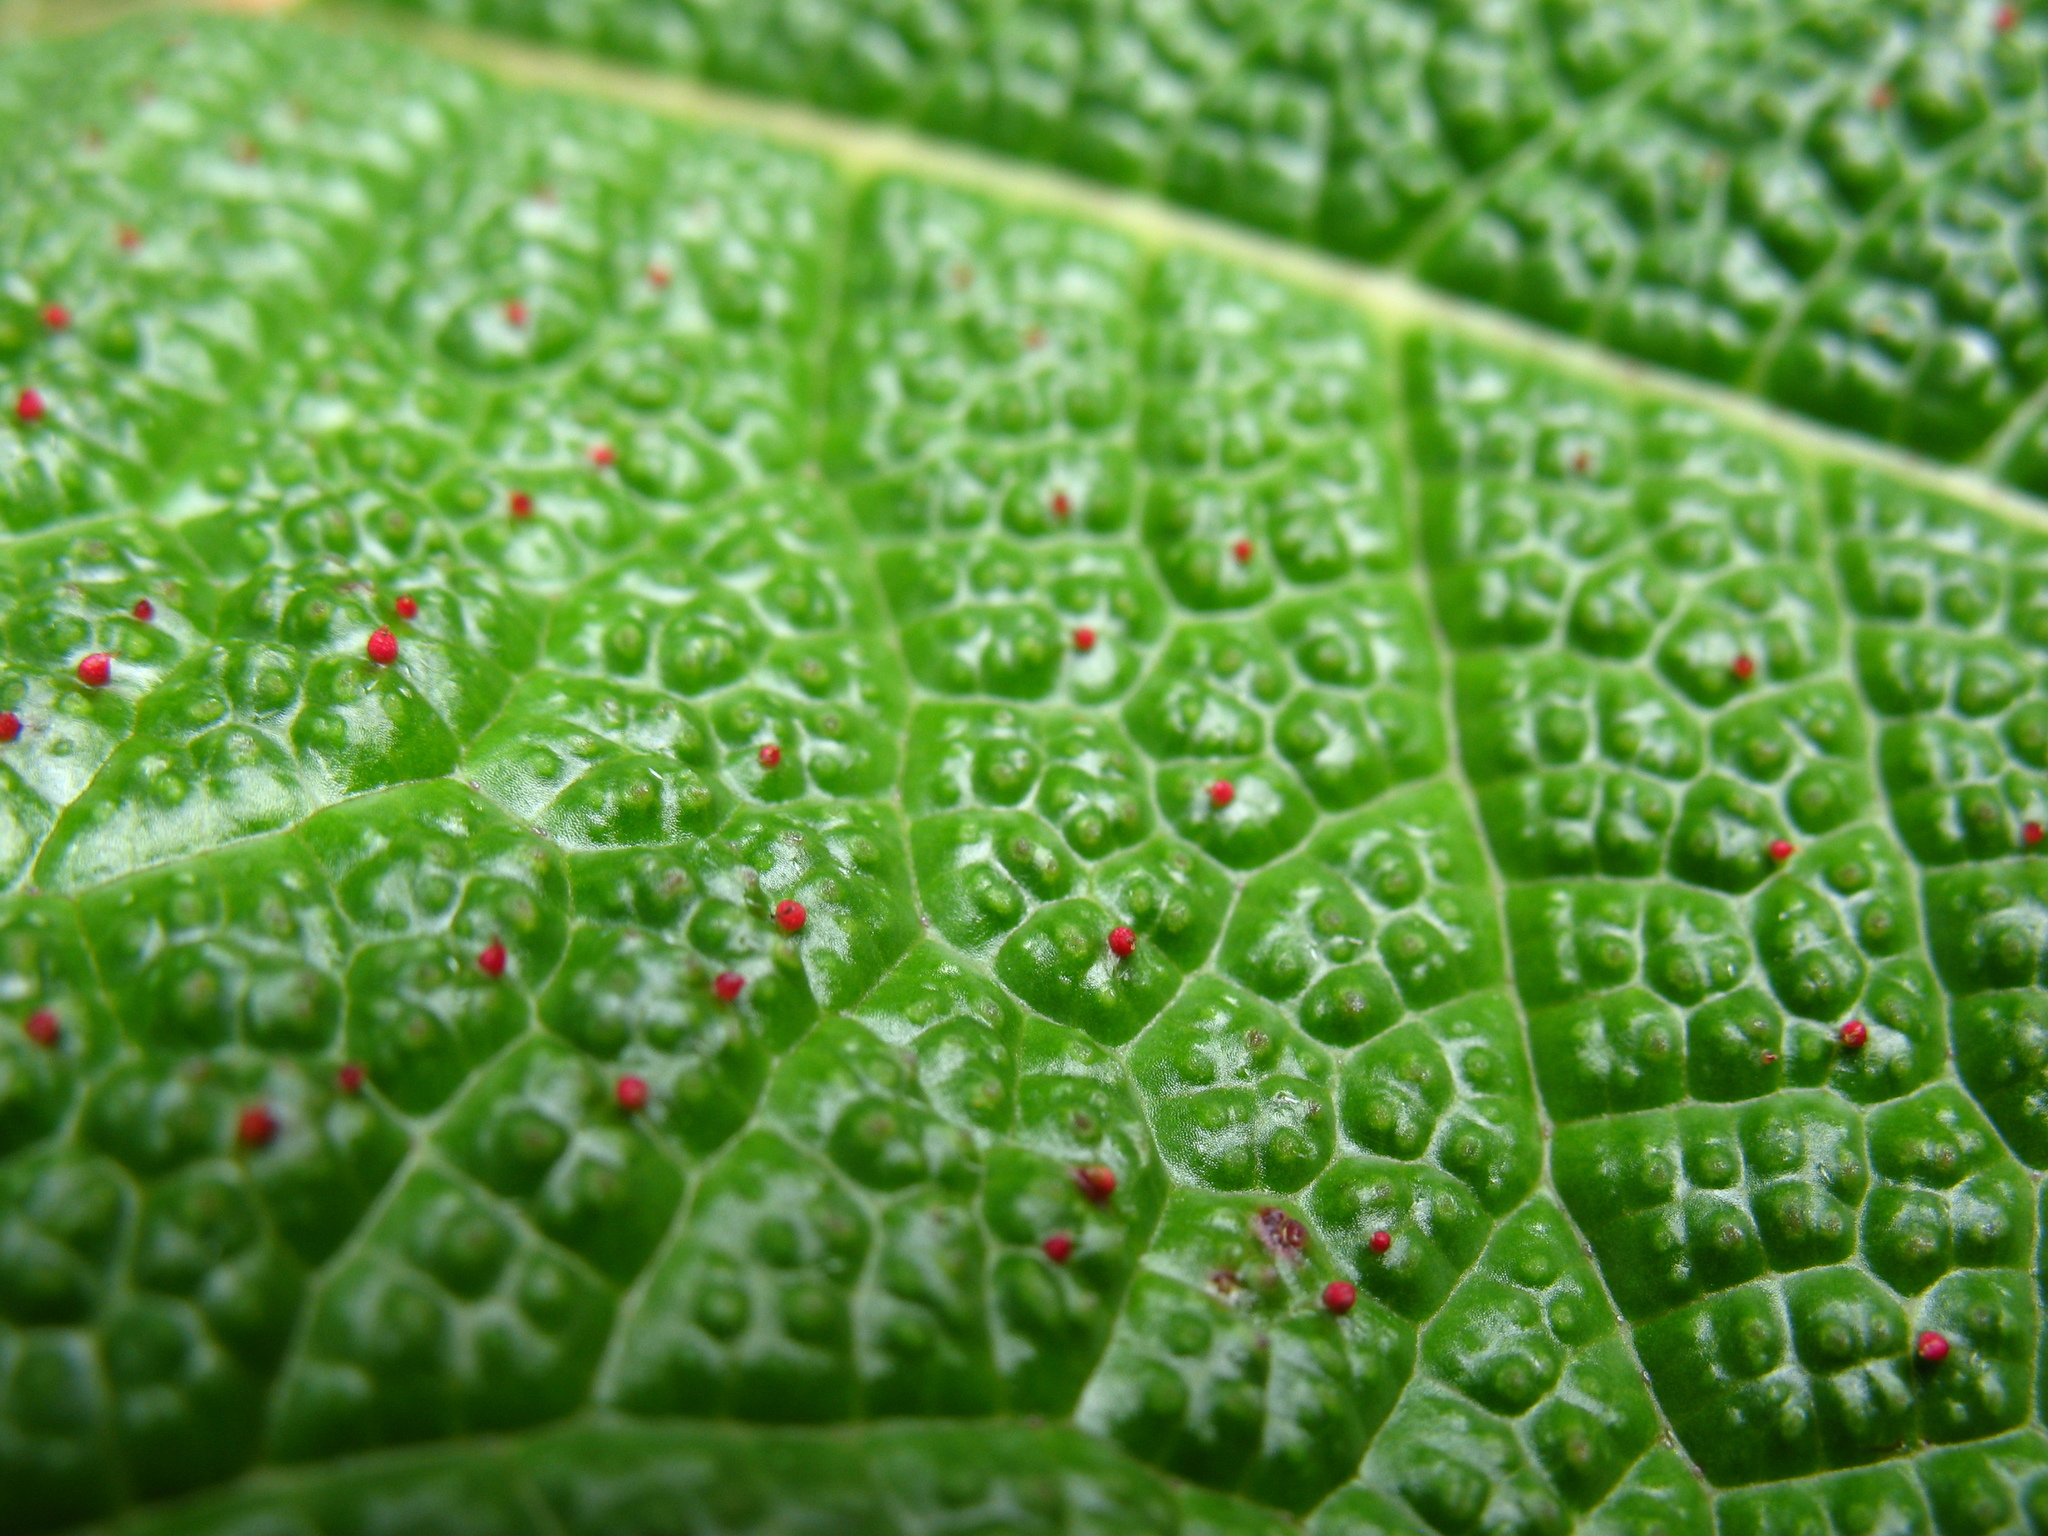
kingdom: Plantae
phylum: Tracheophyta
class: Magnoliopsida
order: Gunnerales
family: Gunneraceae
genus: Gunnera
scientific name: Gunnera insignis
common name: Poorman's umbrella
